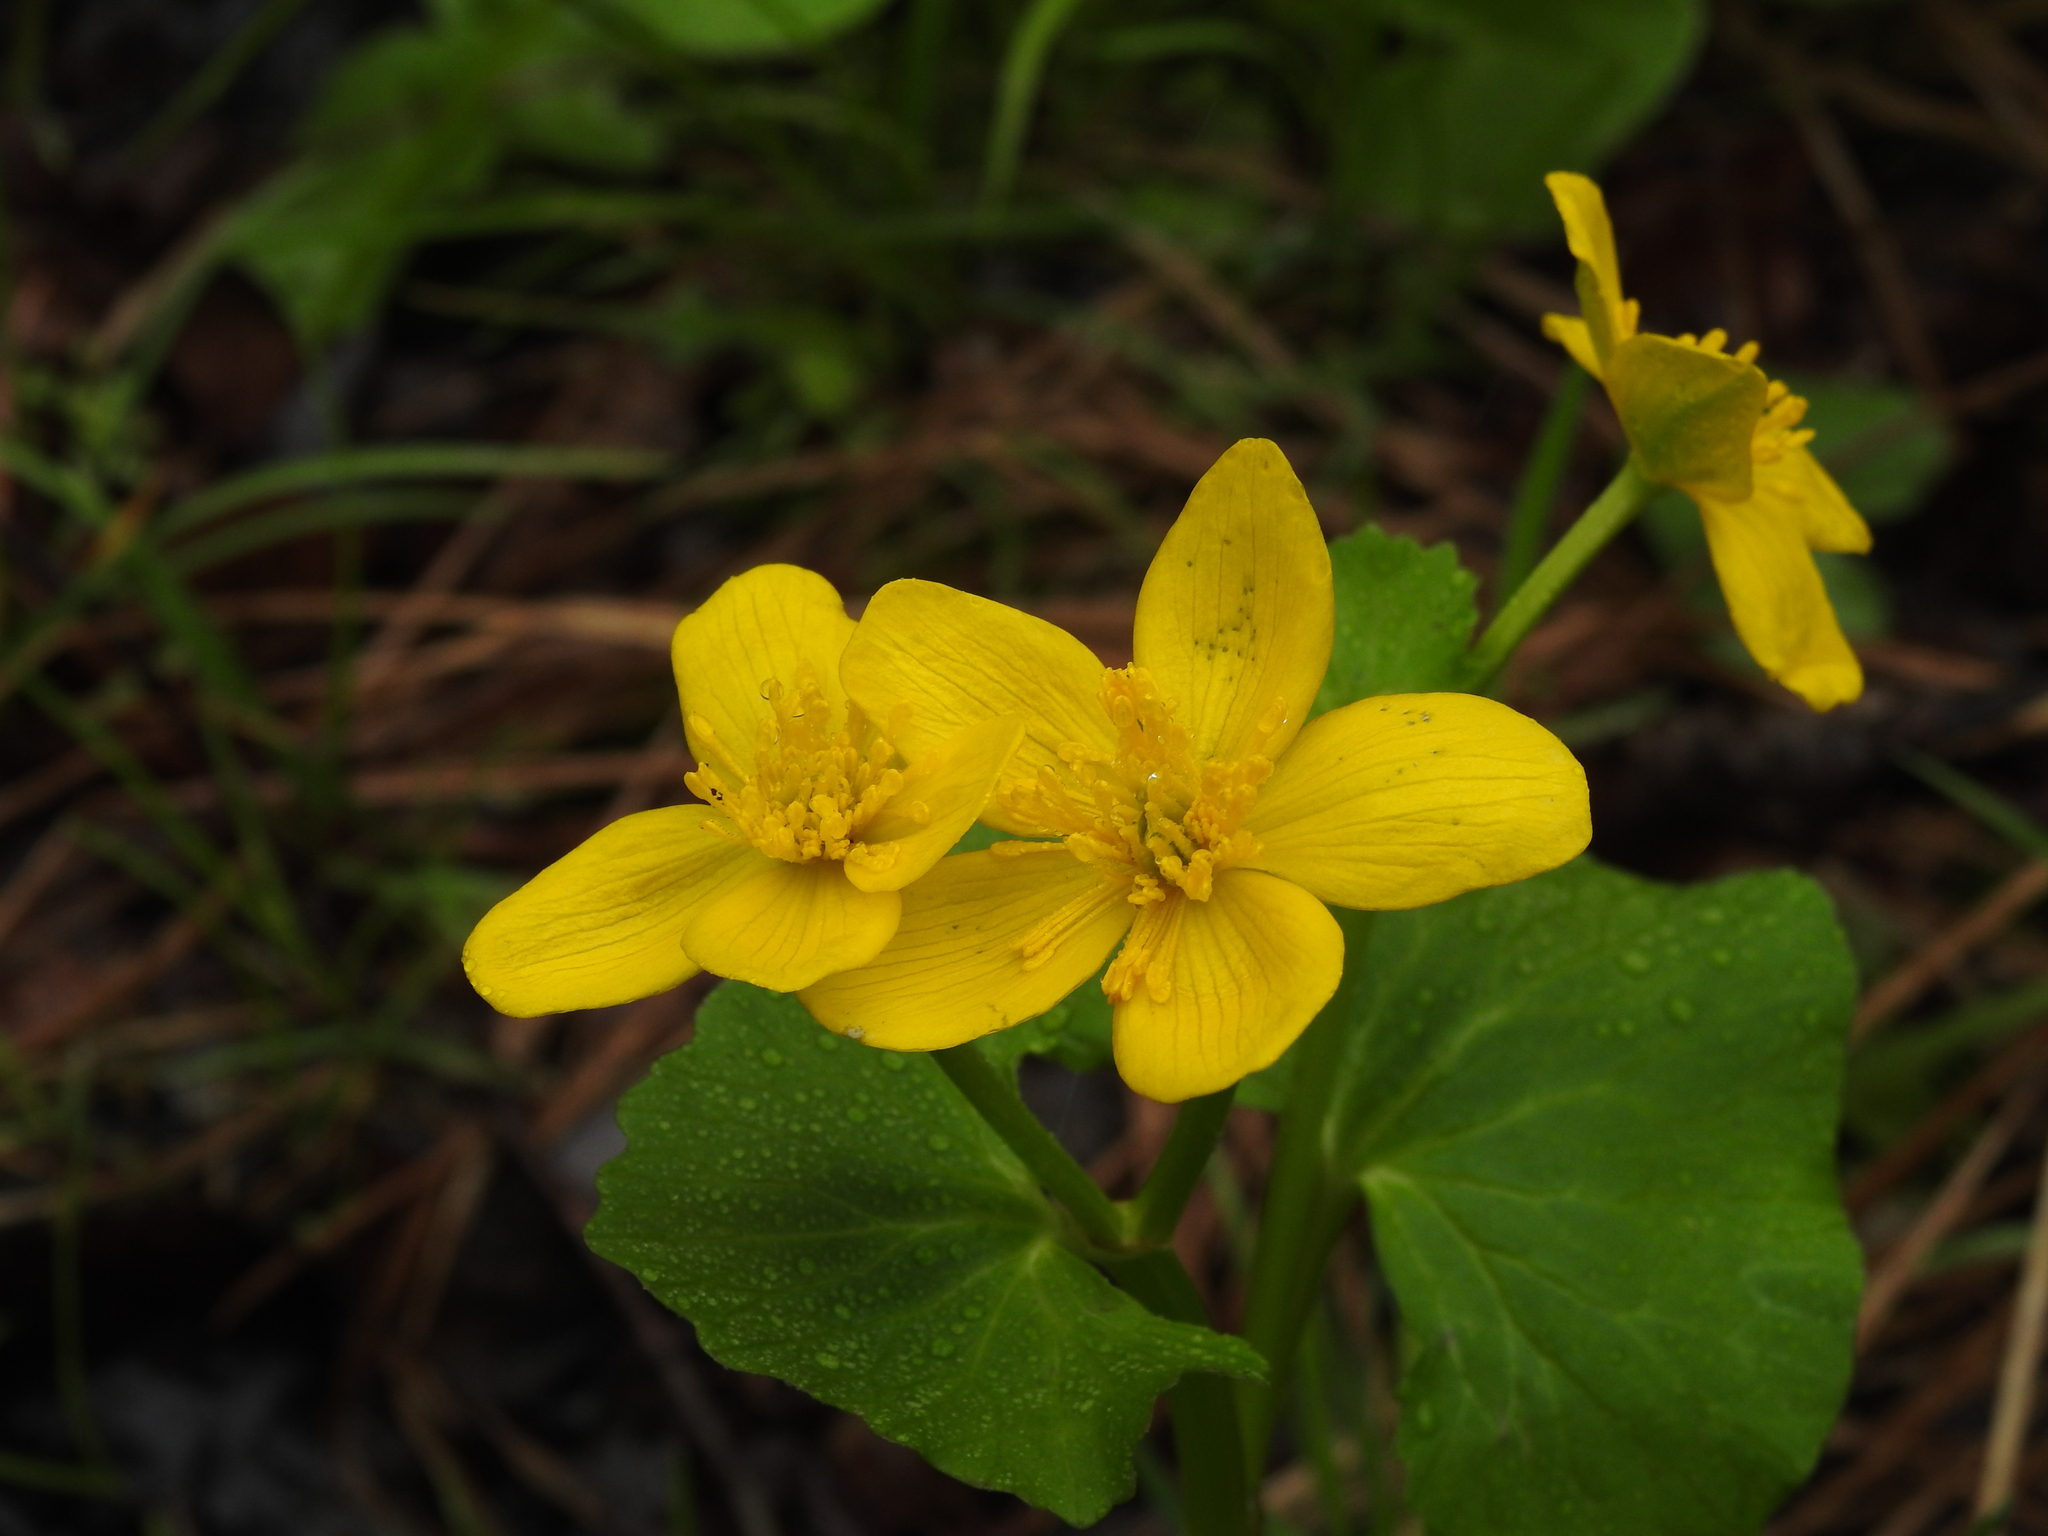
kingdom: Plantae
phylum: Tracheophyta
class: Magnoliopsida
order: Ranunculales
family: Ranunculaceae
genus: Caltha
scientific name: Caltha palustris
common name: Marsh marigold
